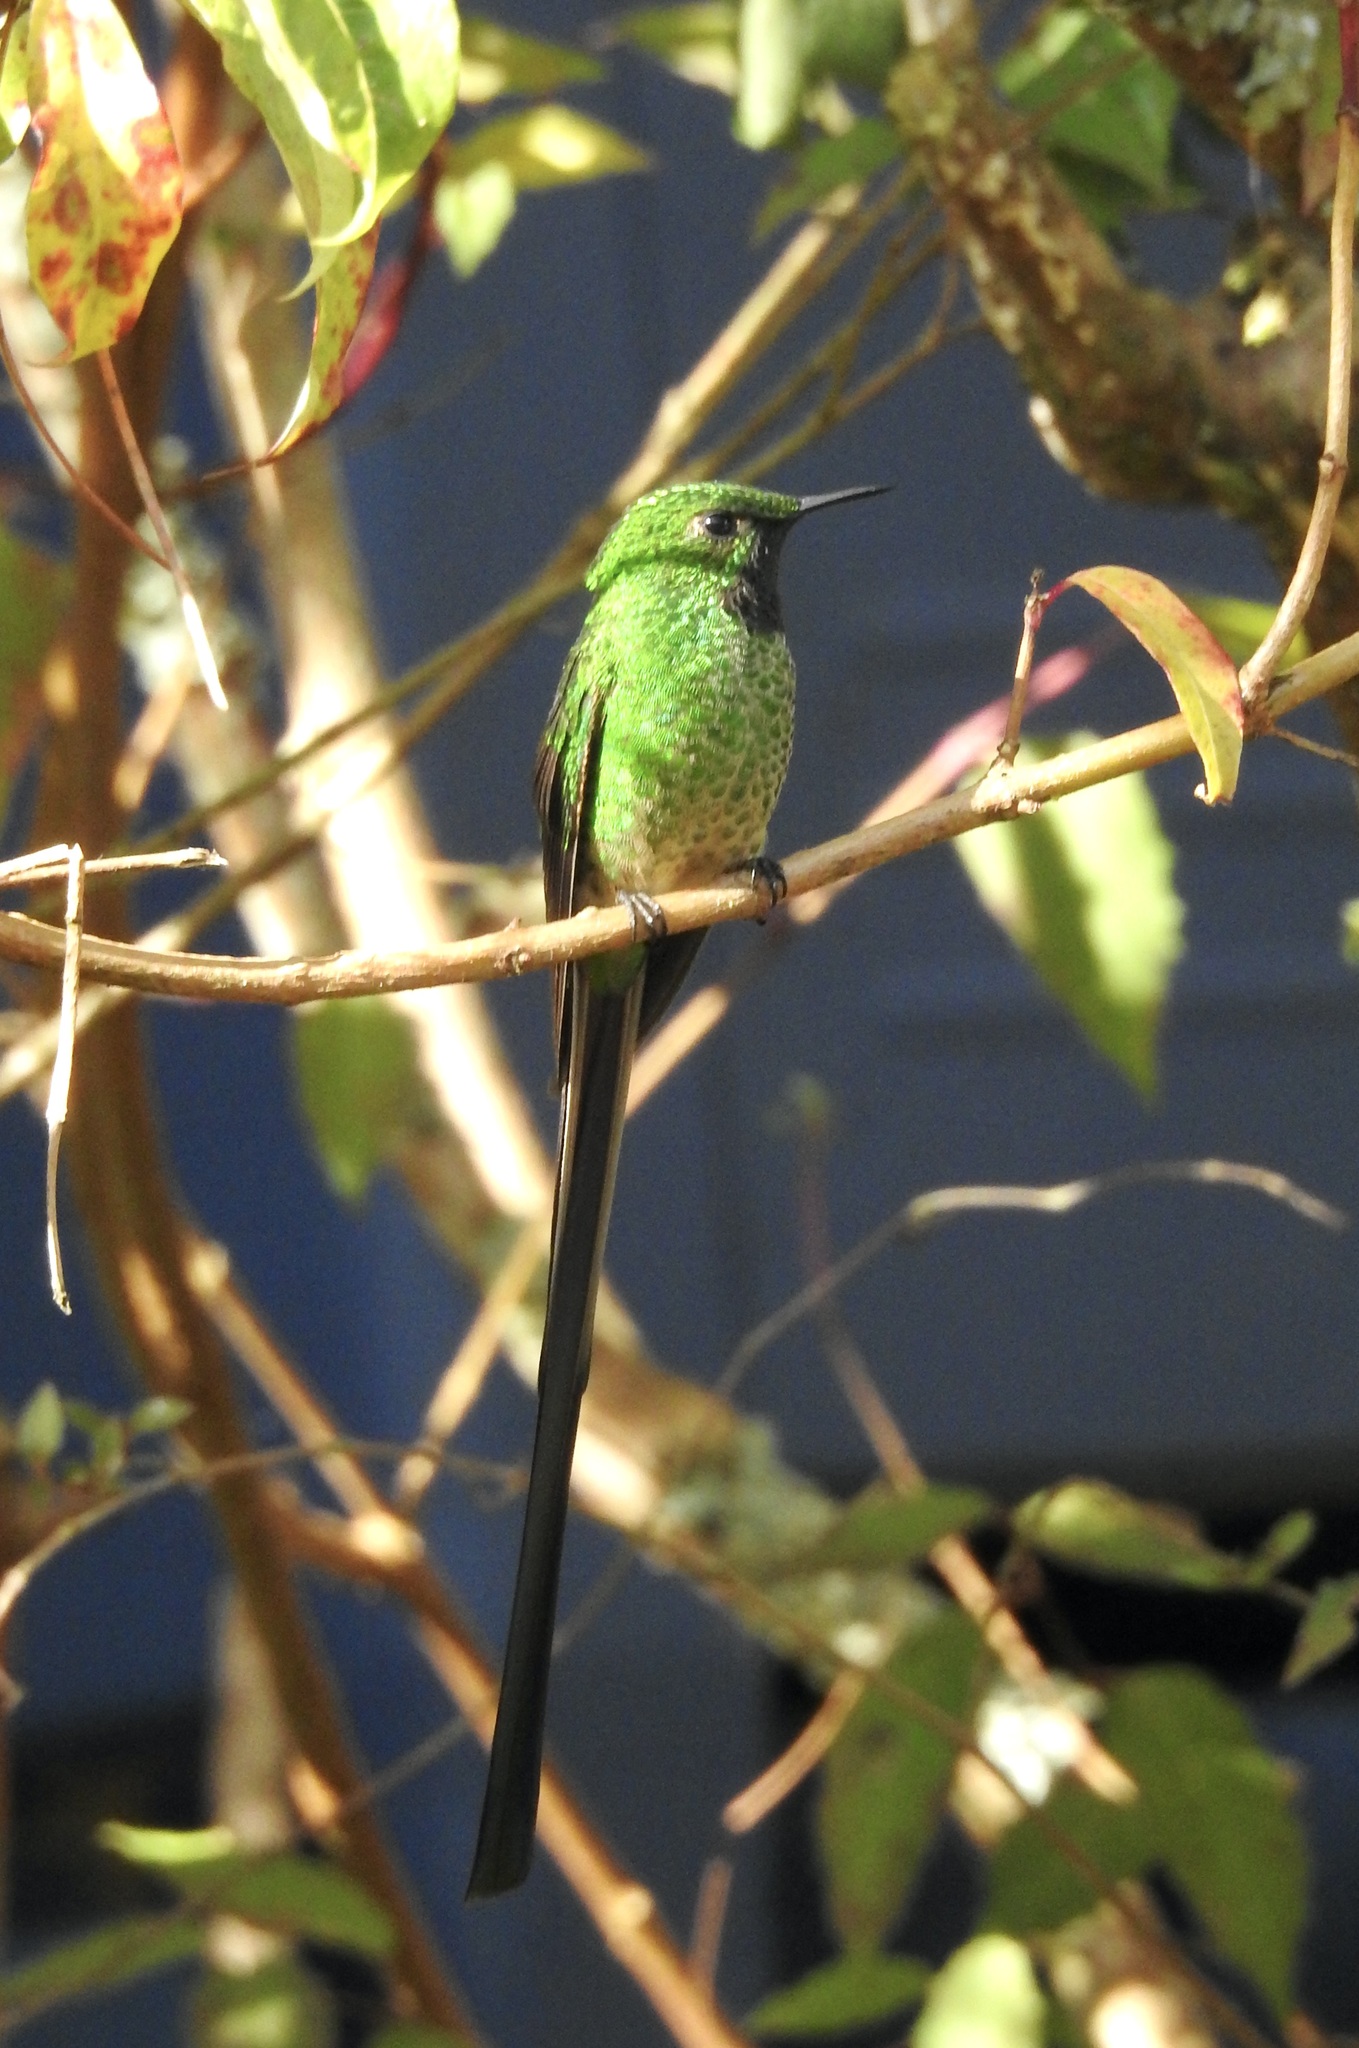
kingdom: Animalia
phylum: Chordata
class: Aves
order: Apodiformes
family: Trochilidae
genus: Lesbia
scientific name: Lesbia victoriae
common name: Black-tailed trainbearer
